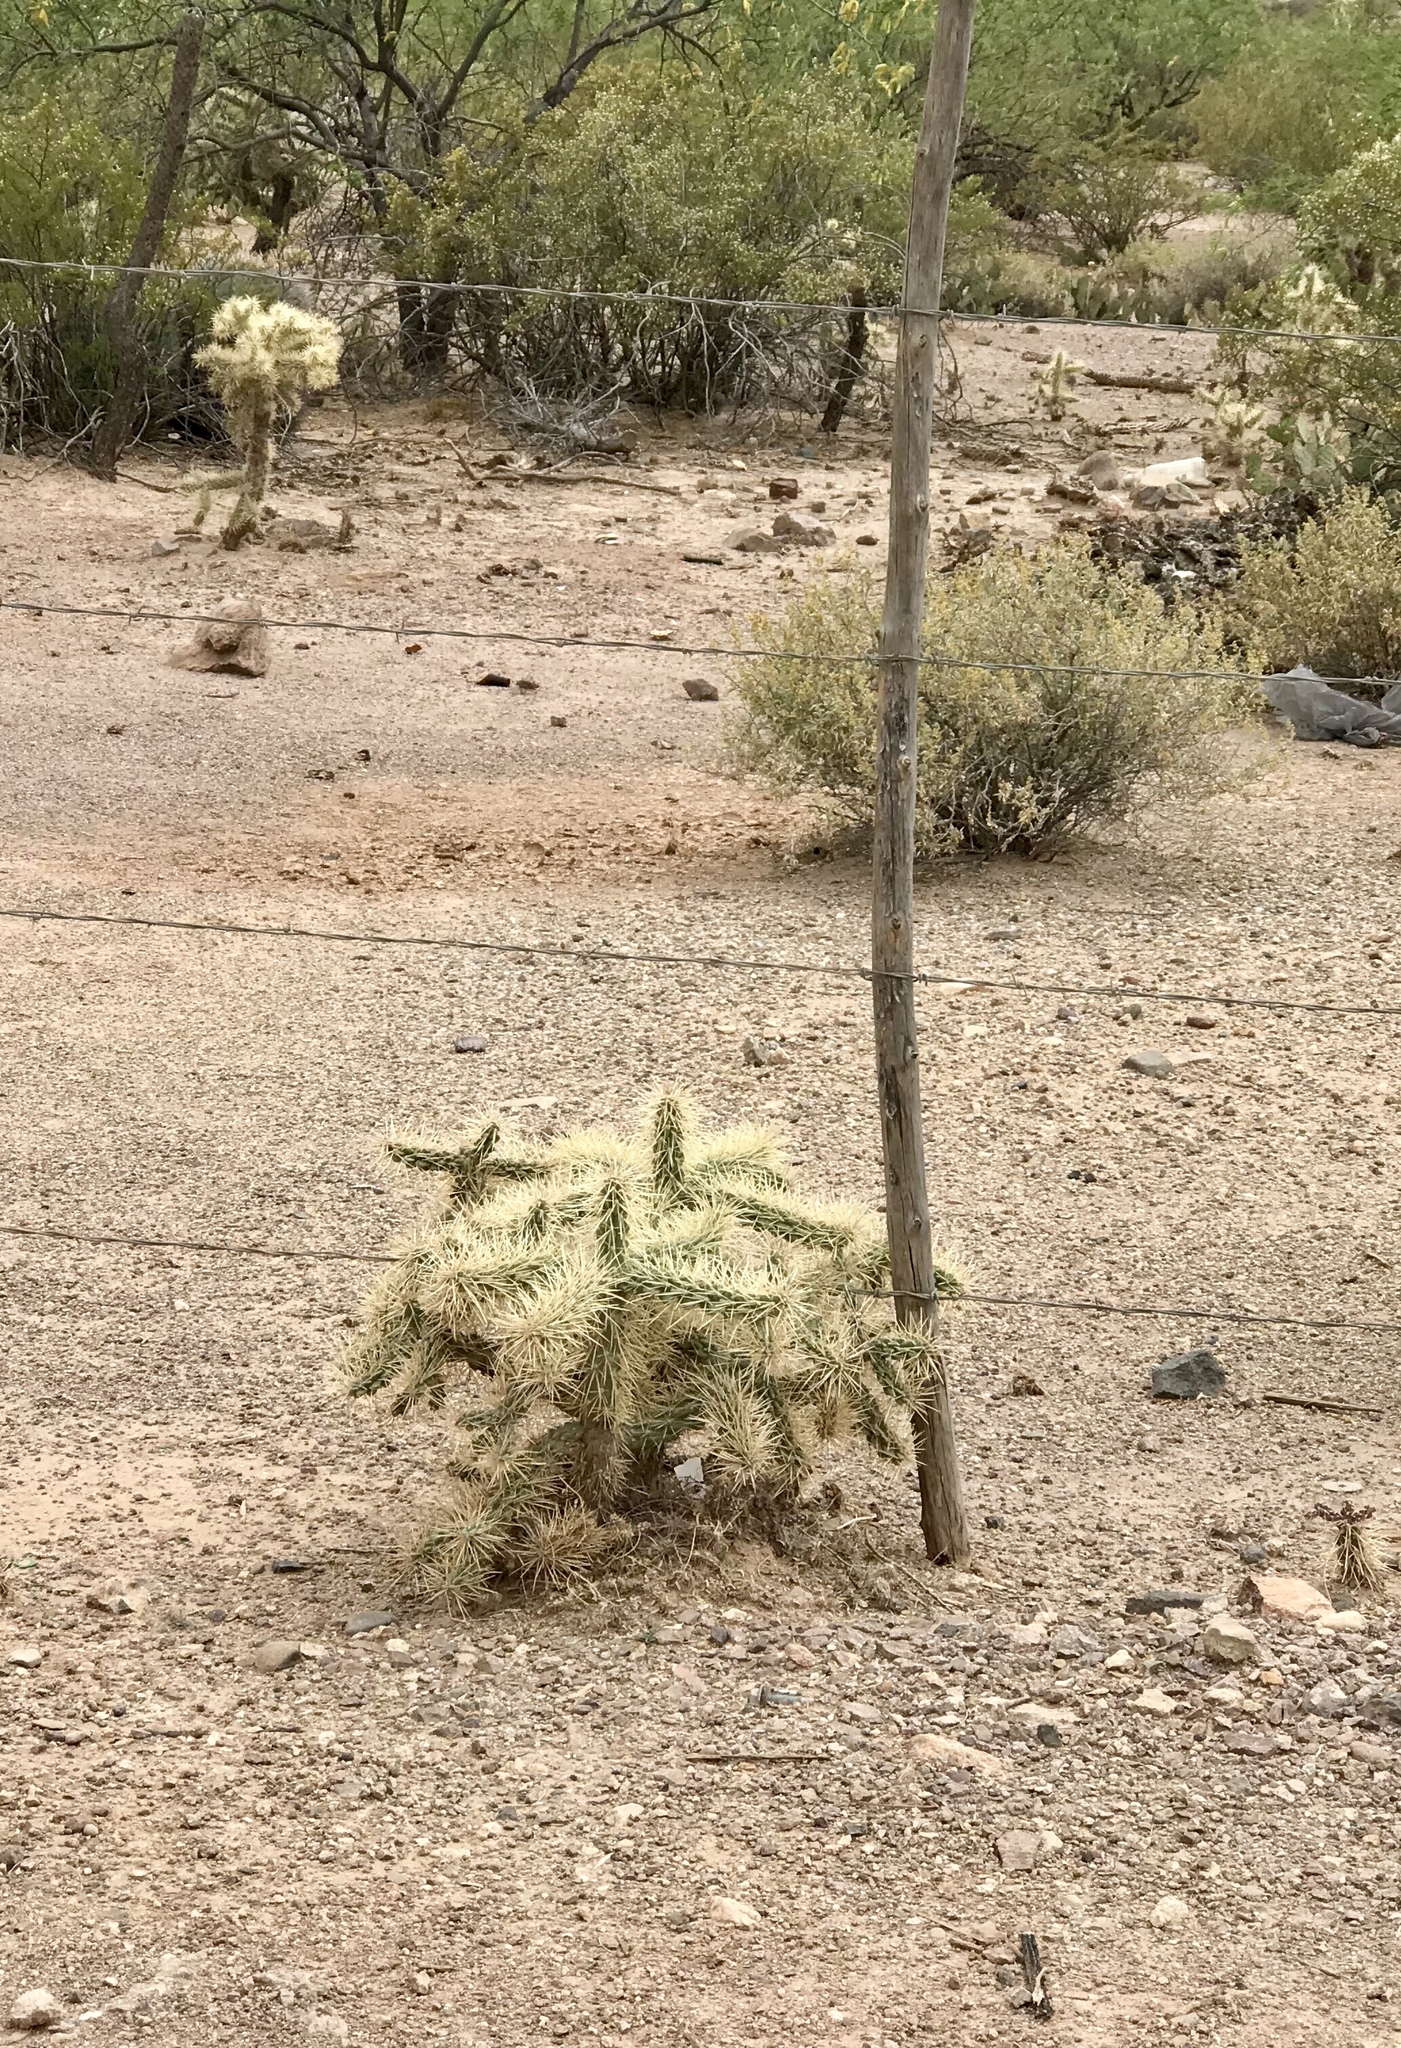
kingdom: Plantae
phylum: Tracheophyta
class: Magnoliopsida
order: Caryophyllales
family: Cactaceae
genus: Cylindropuntia
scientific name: Cylindropuntia fulgida
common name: Jumping cholla
